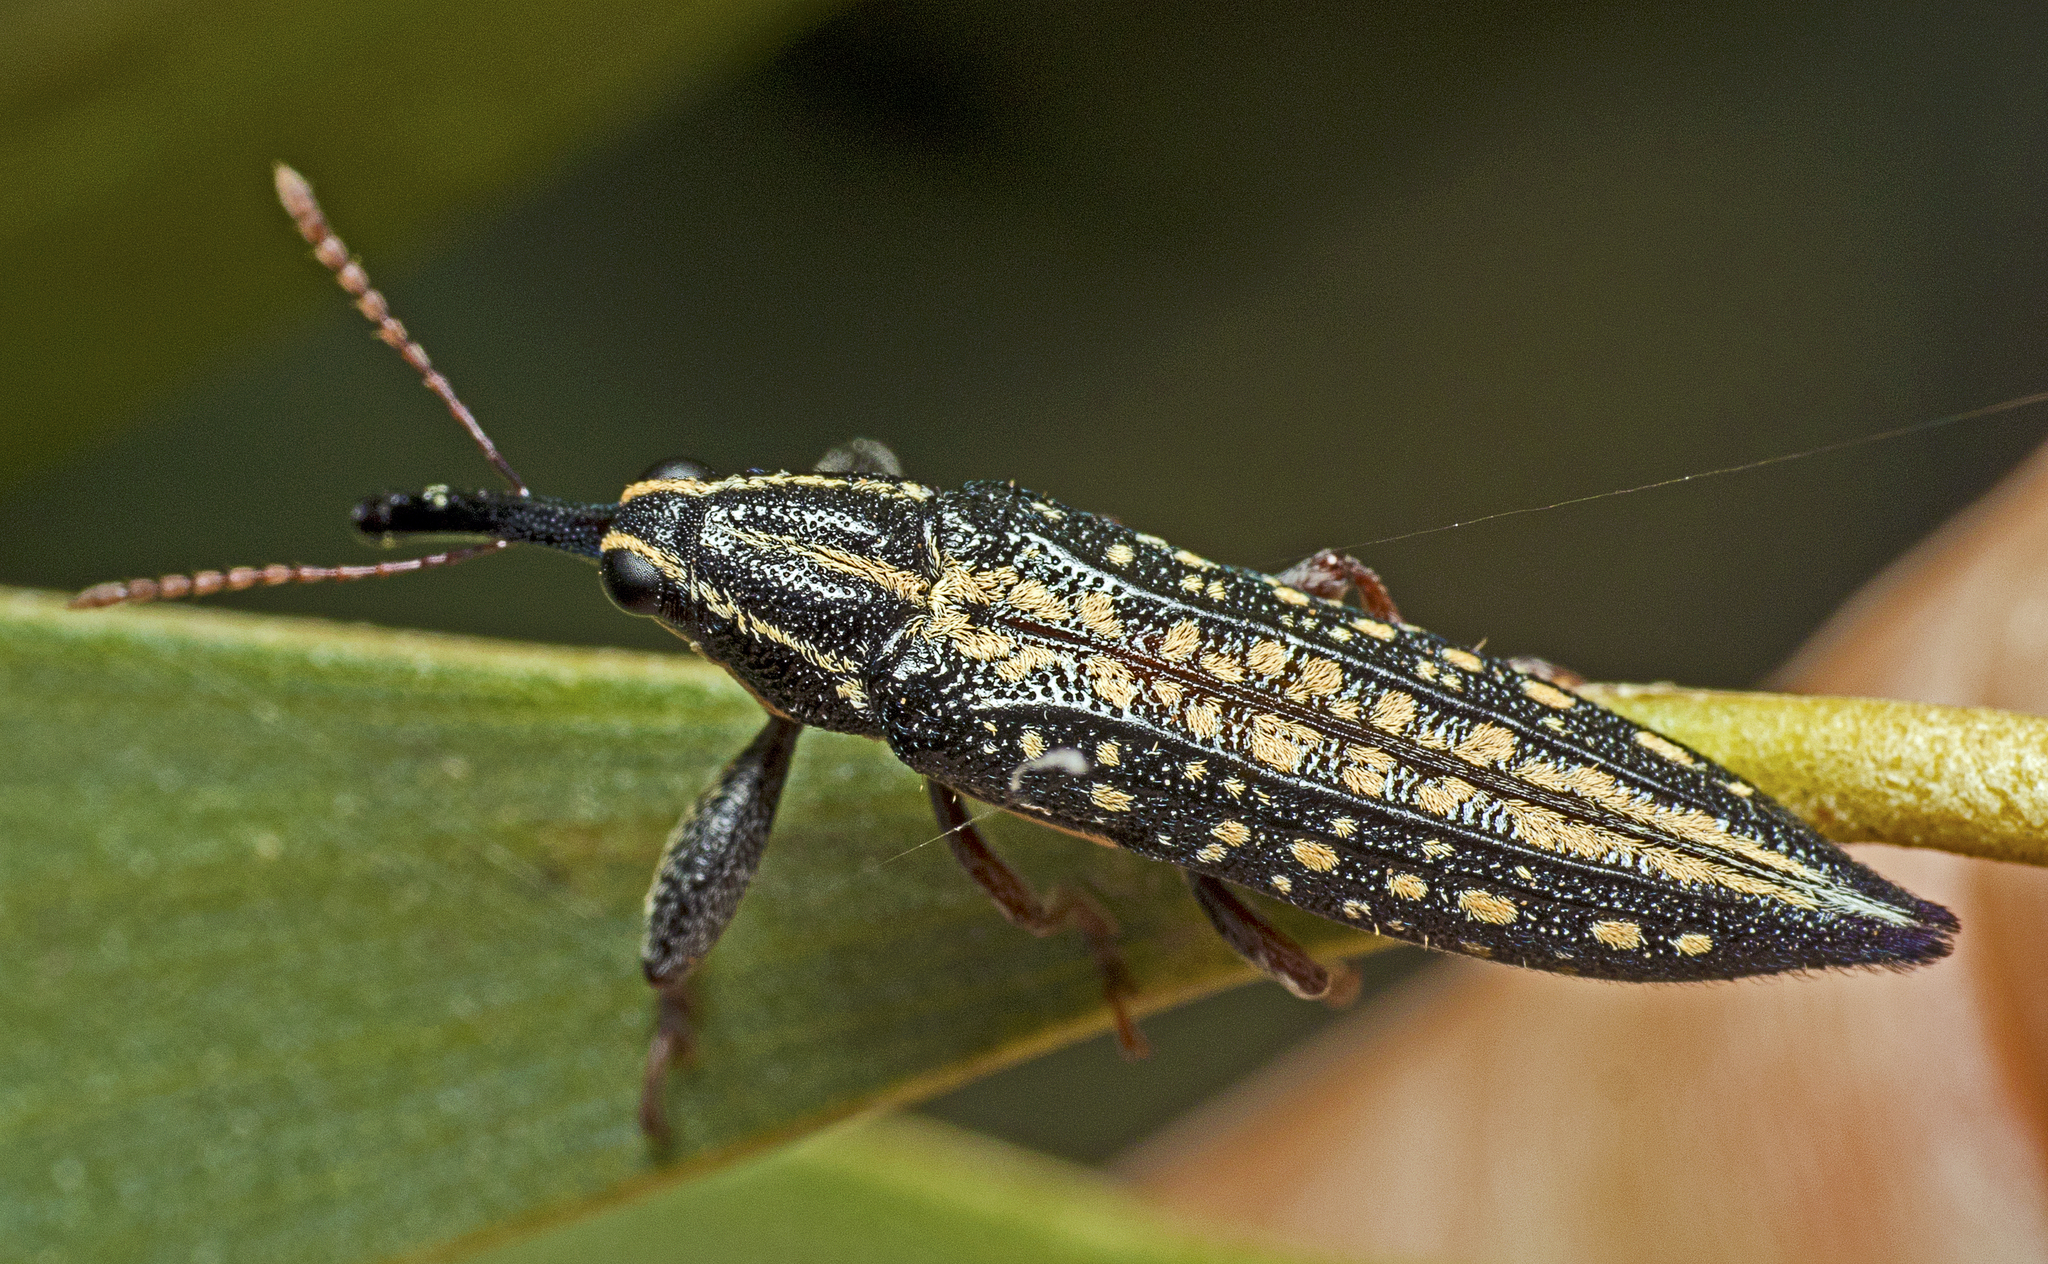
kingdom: Animalia
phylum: Arthropoda
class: Insecta
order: Coleoptera
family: Belidae
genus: Rhinotia
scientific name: Rhinotia lineata
